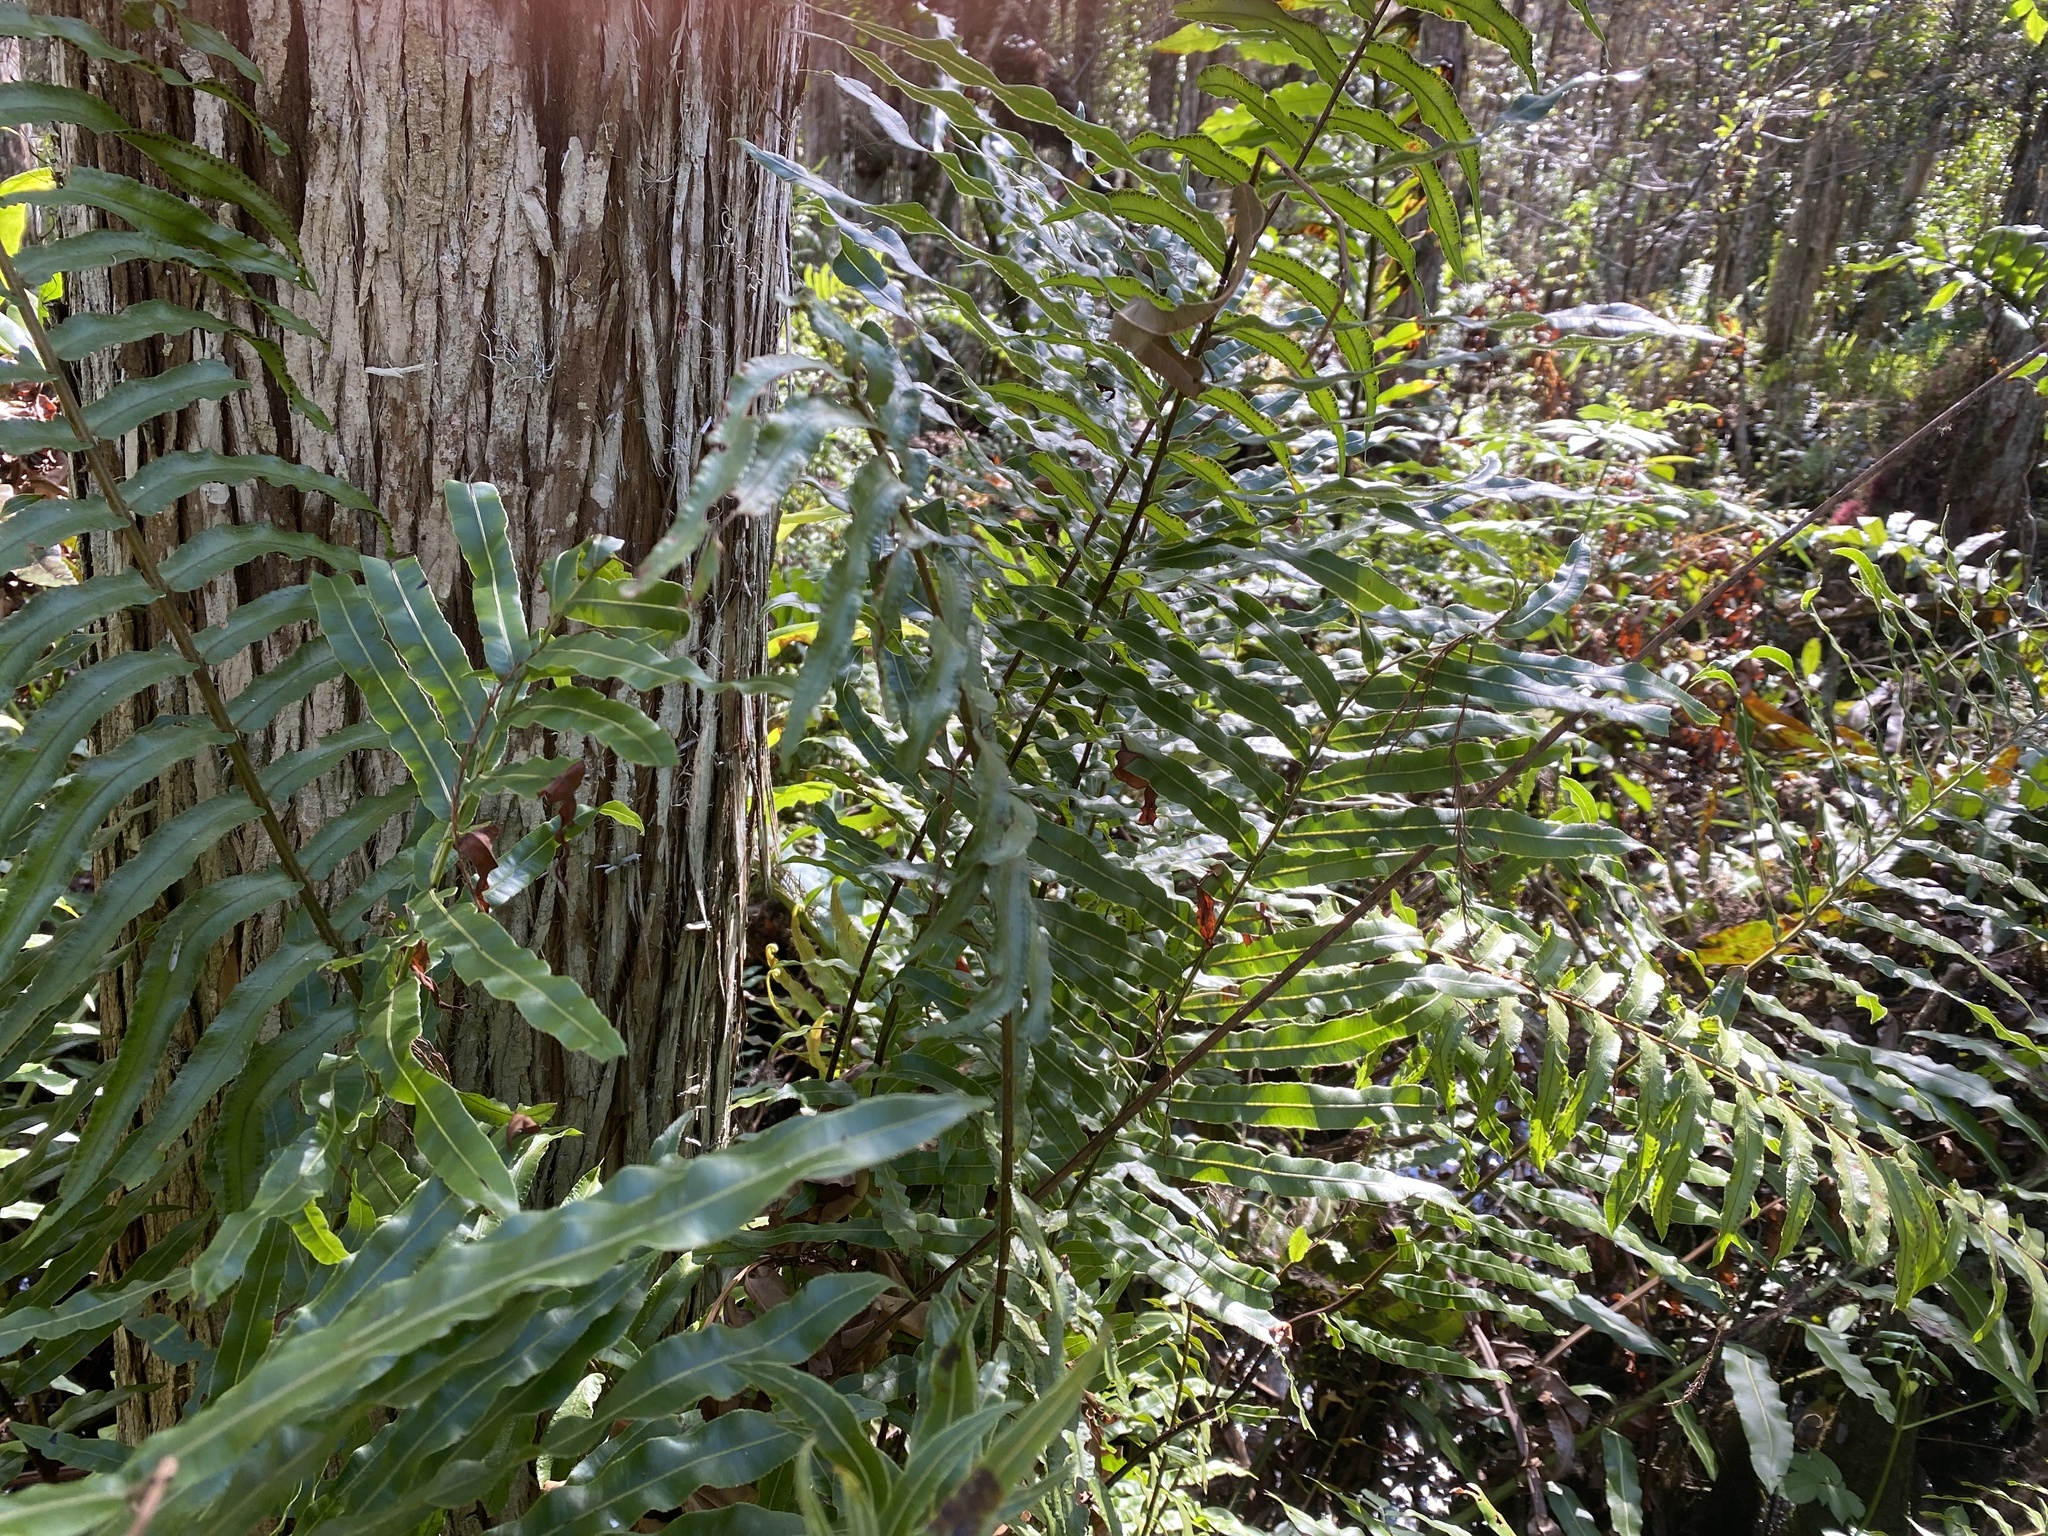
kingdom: Plantae
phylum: Tracheophyta
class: Polypodiopsida
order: Polypodiales
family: Blechnaceae
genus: Telmatoblechnum
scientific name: Telmatoblechnum serrulatum
